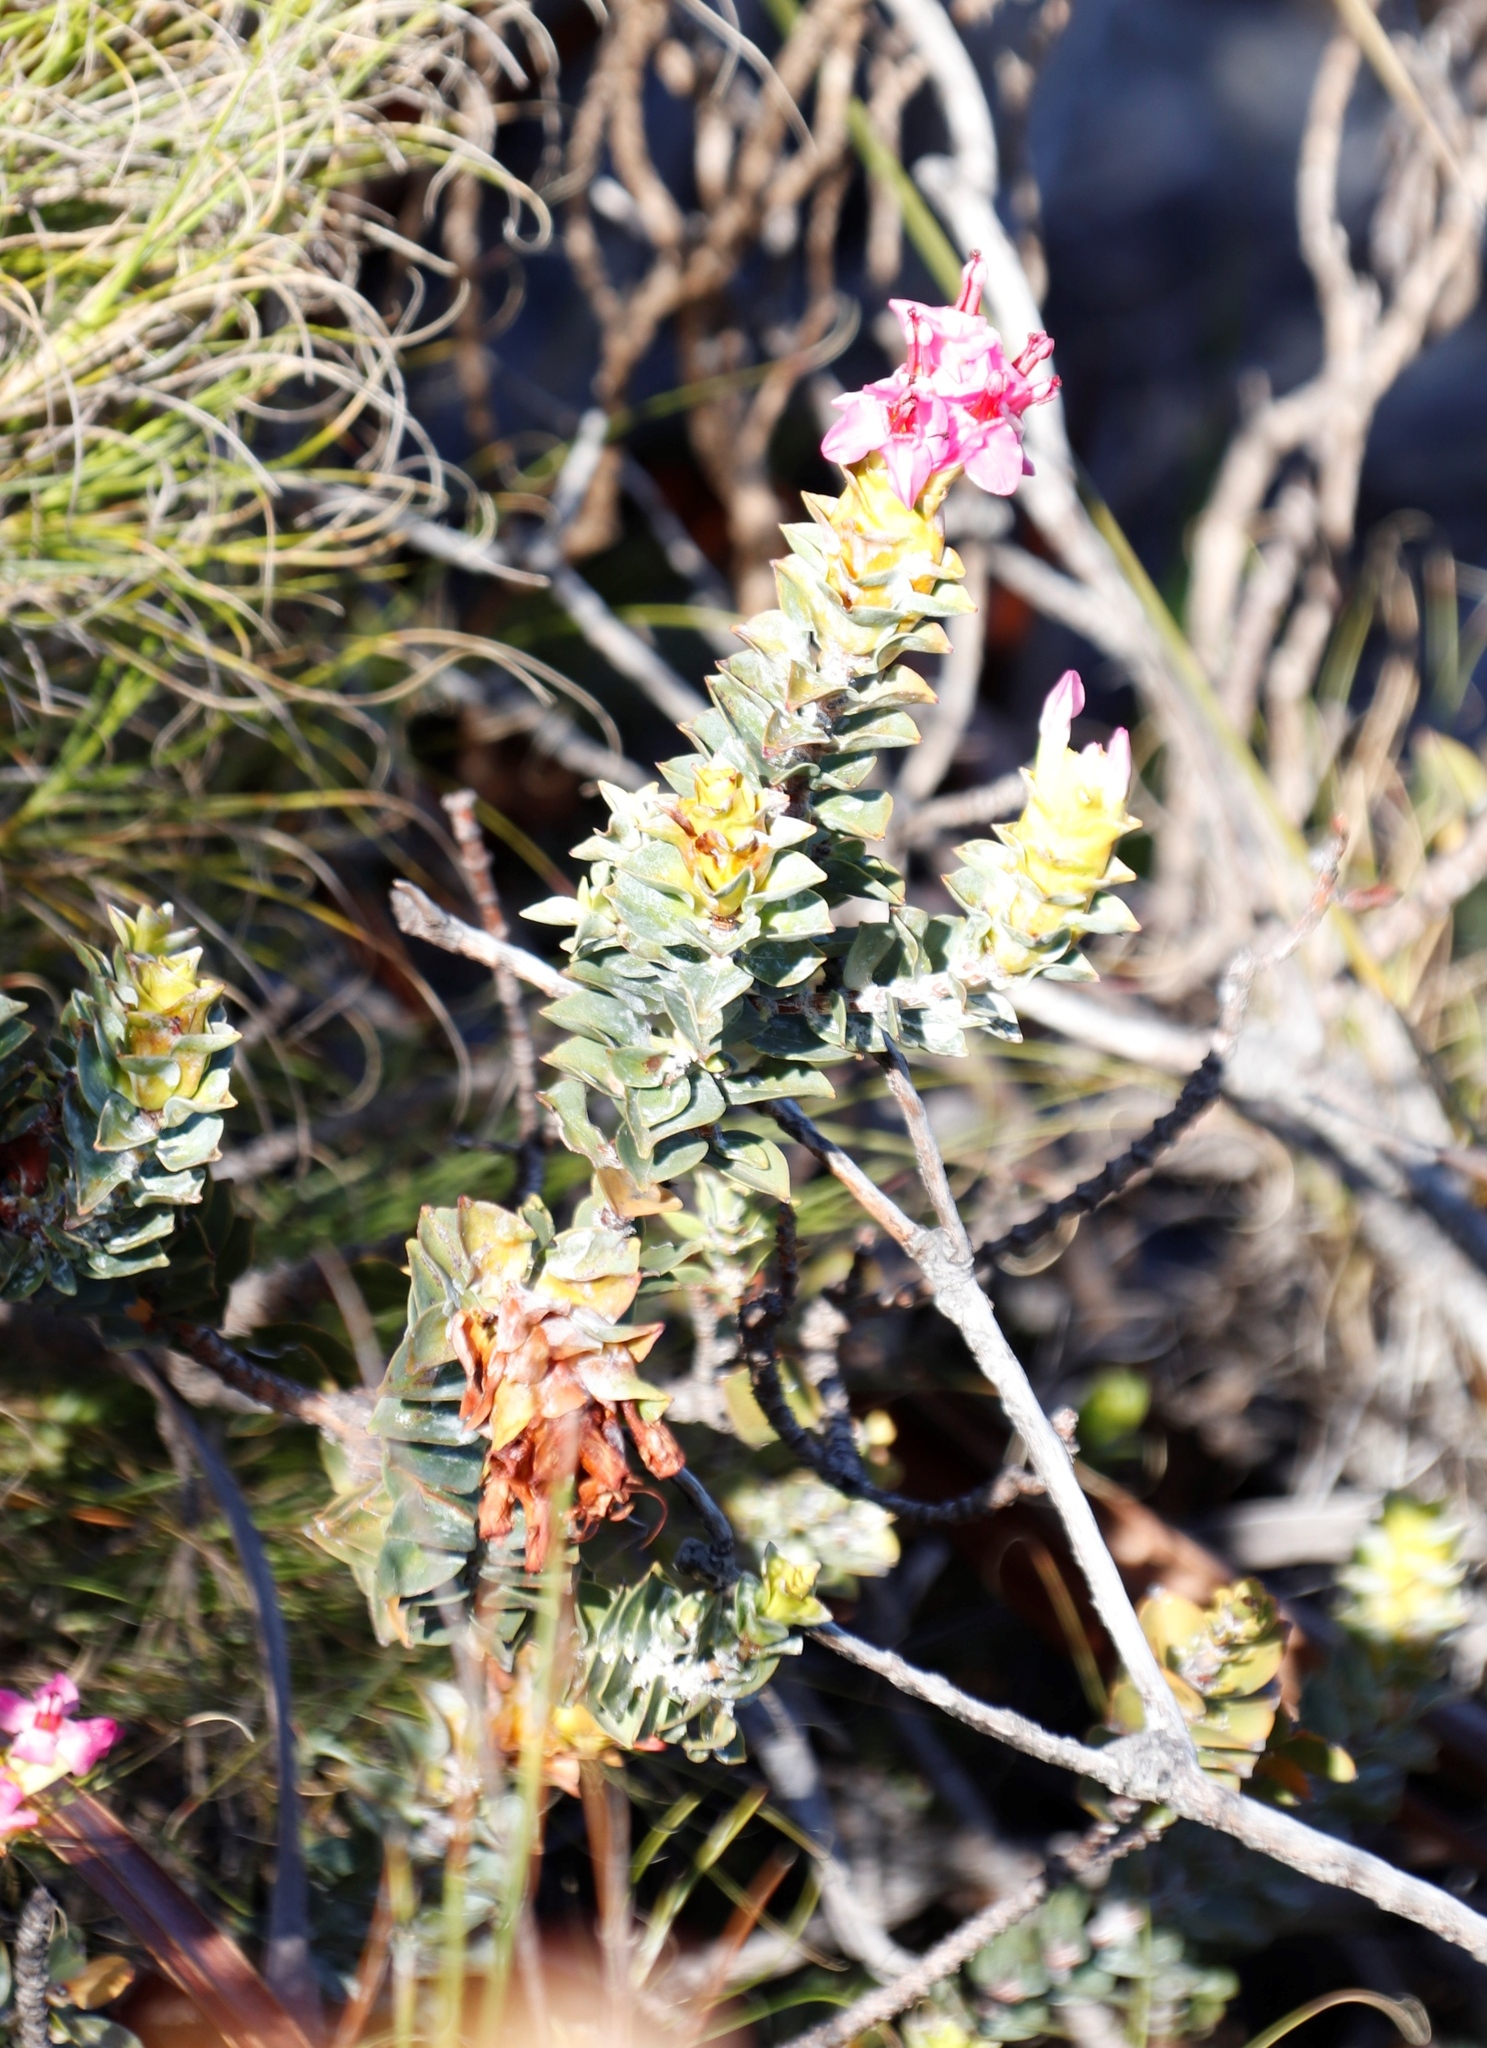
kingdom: Plantae
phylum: Tracheophyta
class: Magnoliopsida
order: Myrtales
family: Penaeaceae
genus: Saltera
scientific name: Saltera sarcocolla
